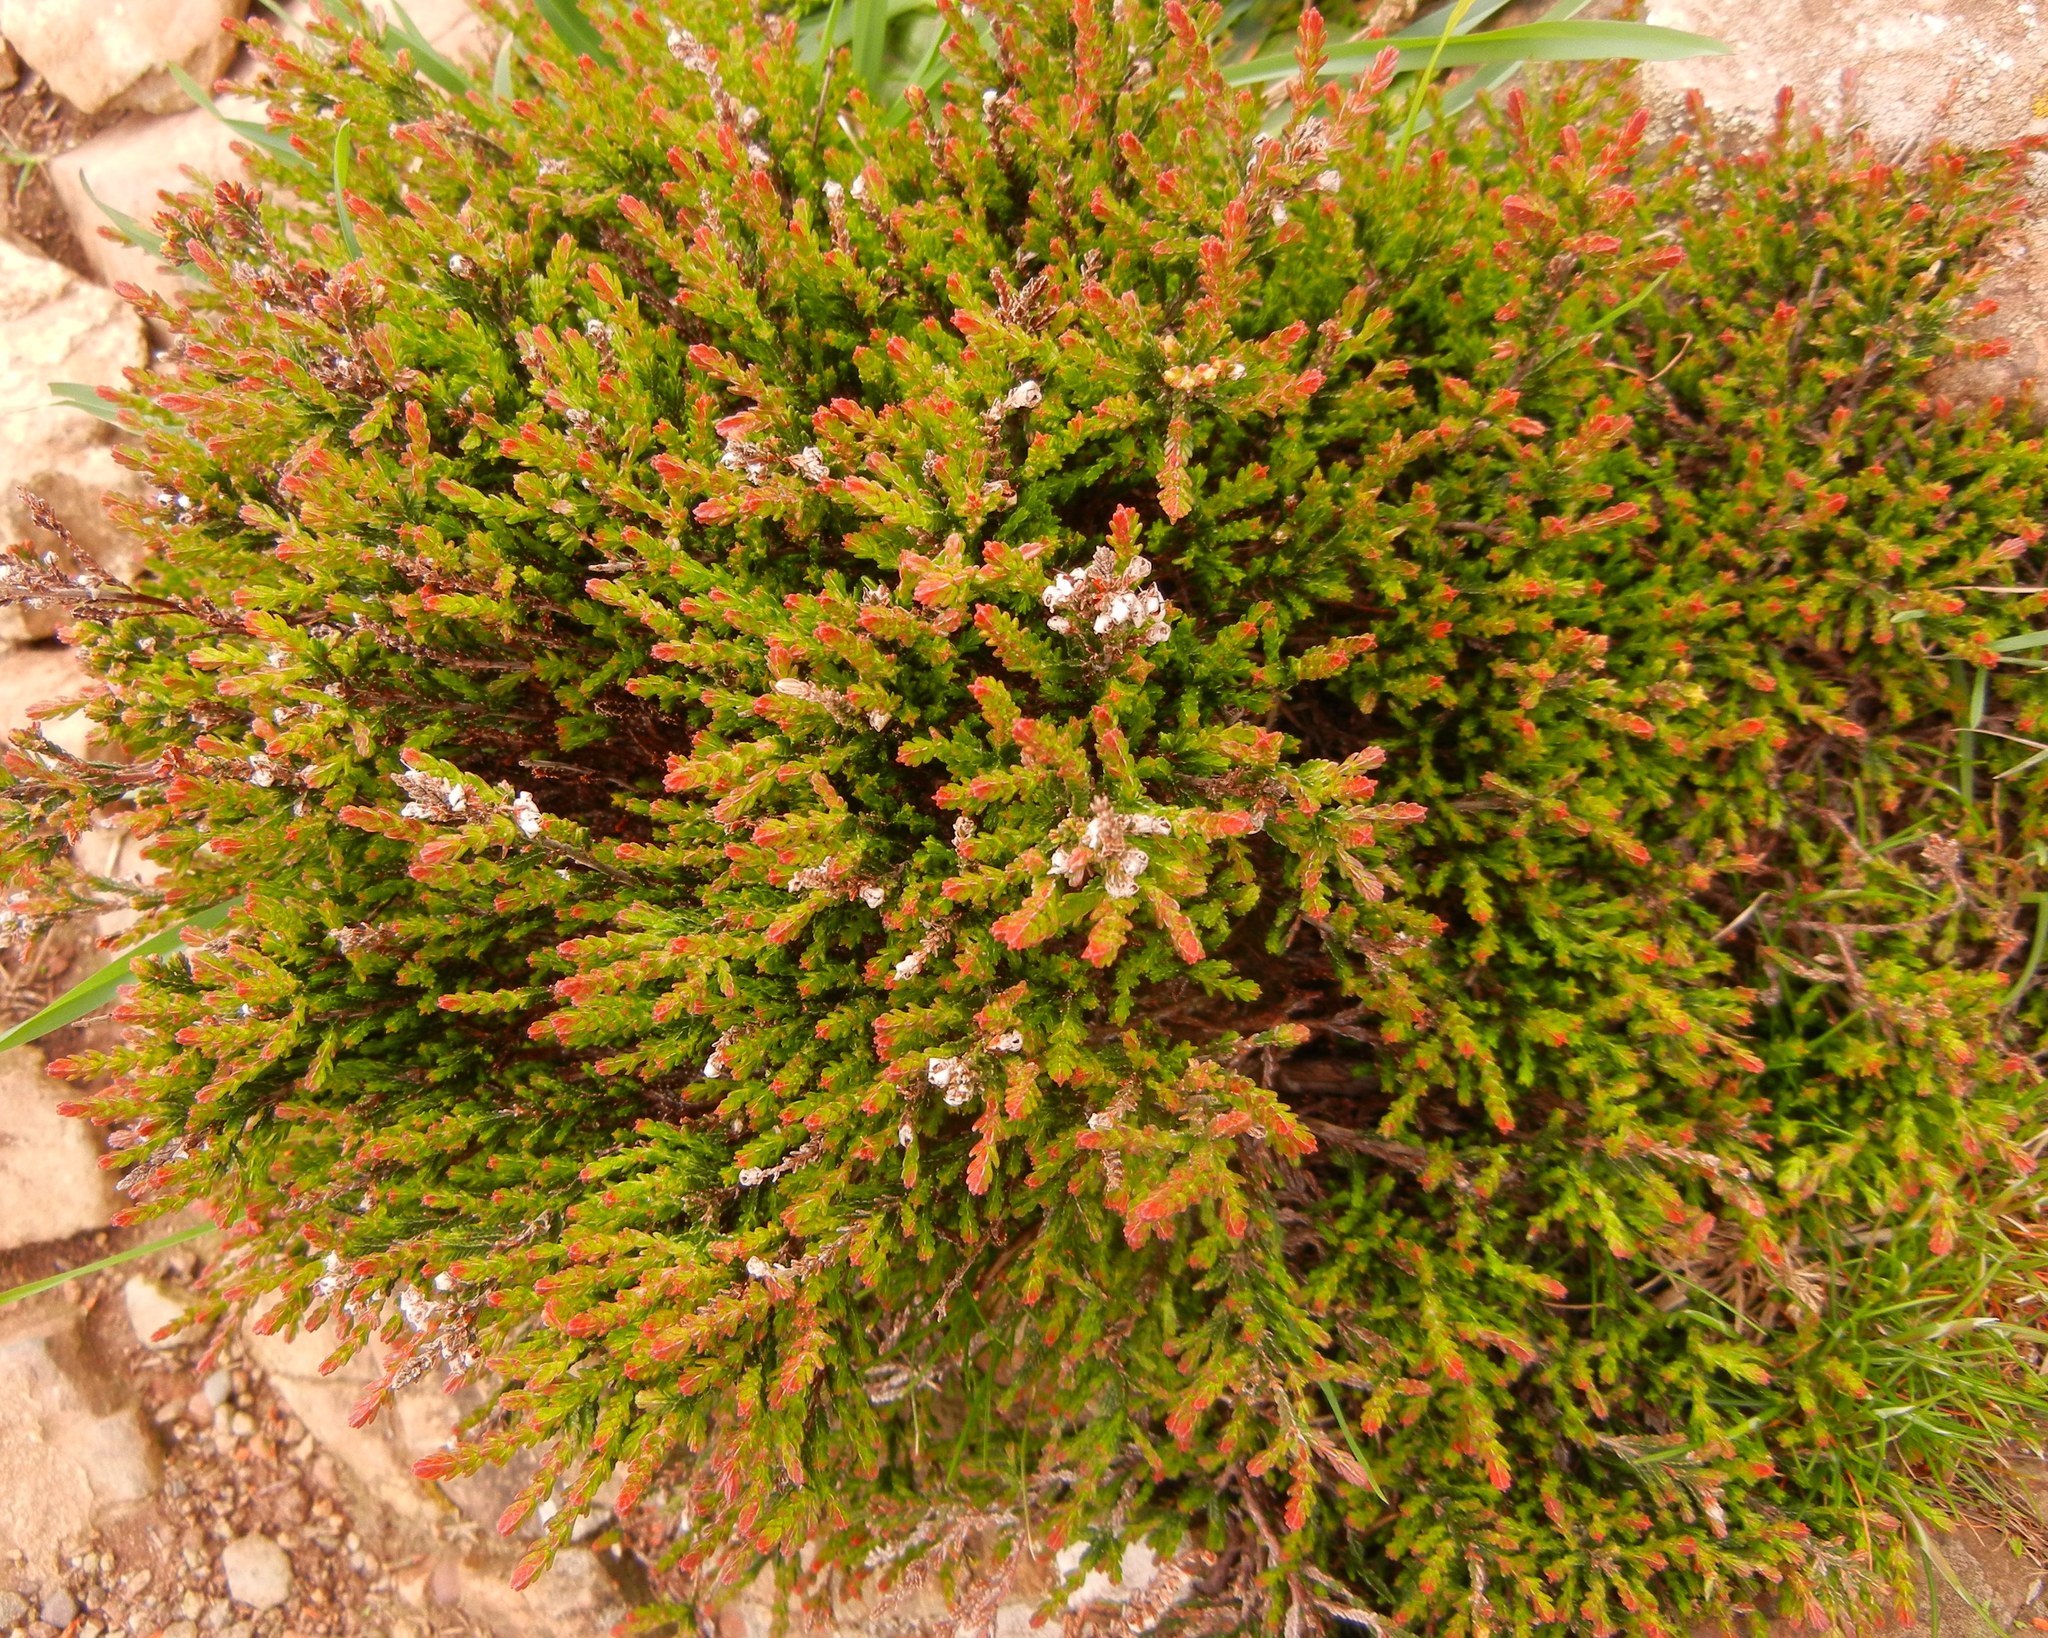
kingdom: Plantae
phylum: Tracheophyta
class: Magnoliopsida
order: Ericales
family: Ericaceae
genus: Calluna
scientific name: Calluna vulgaris
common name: Heather
